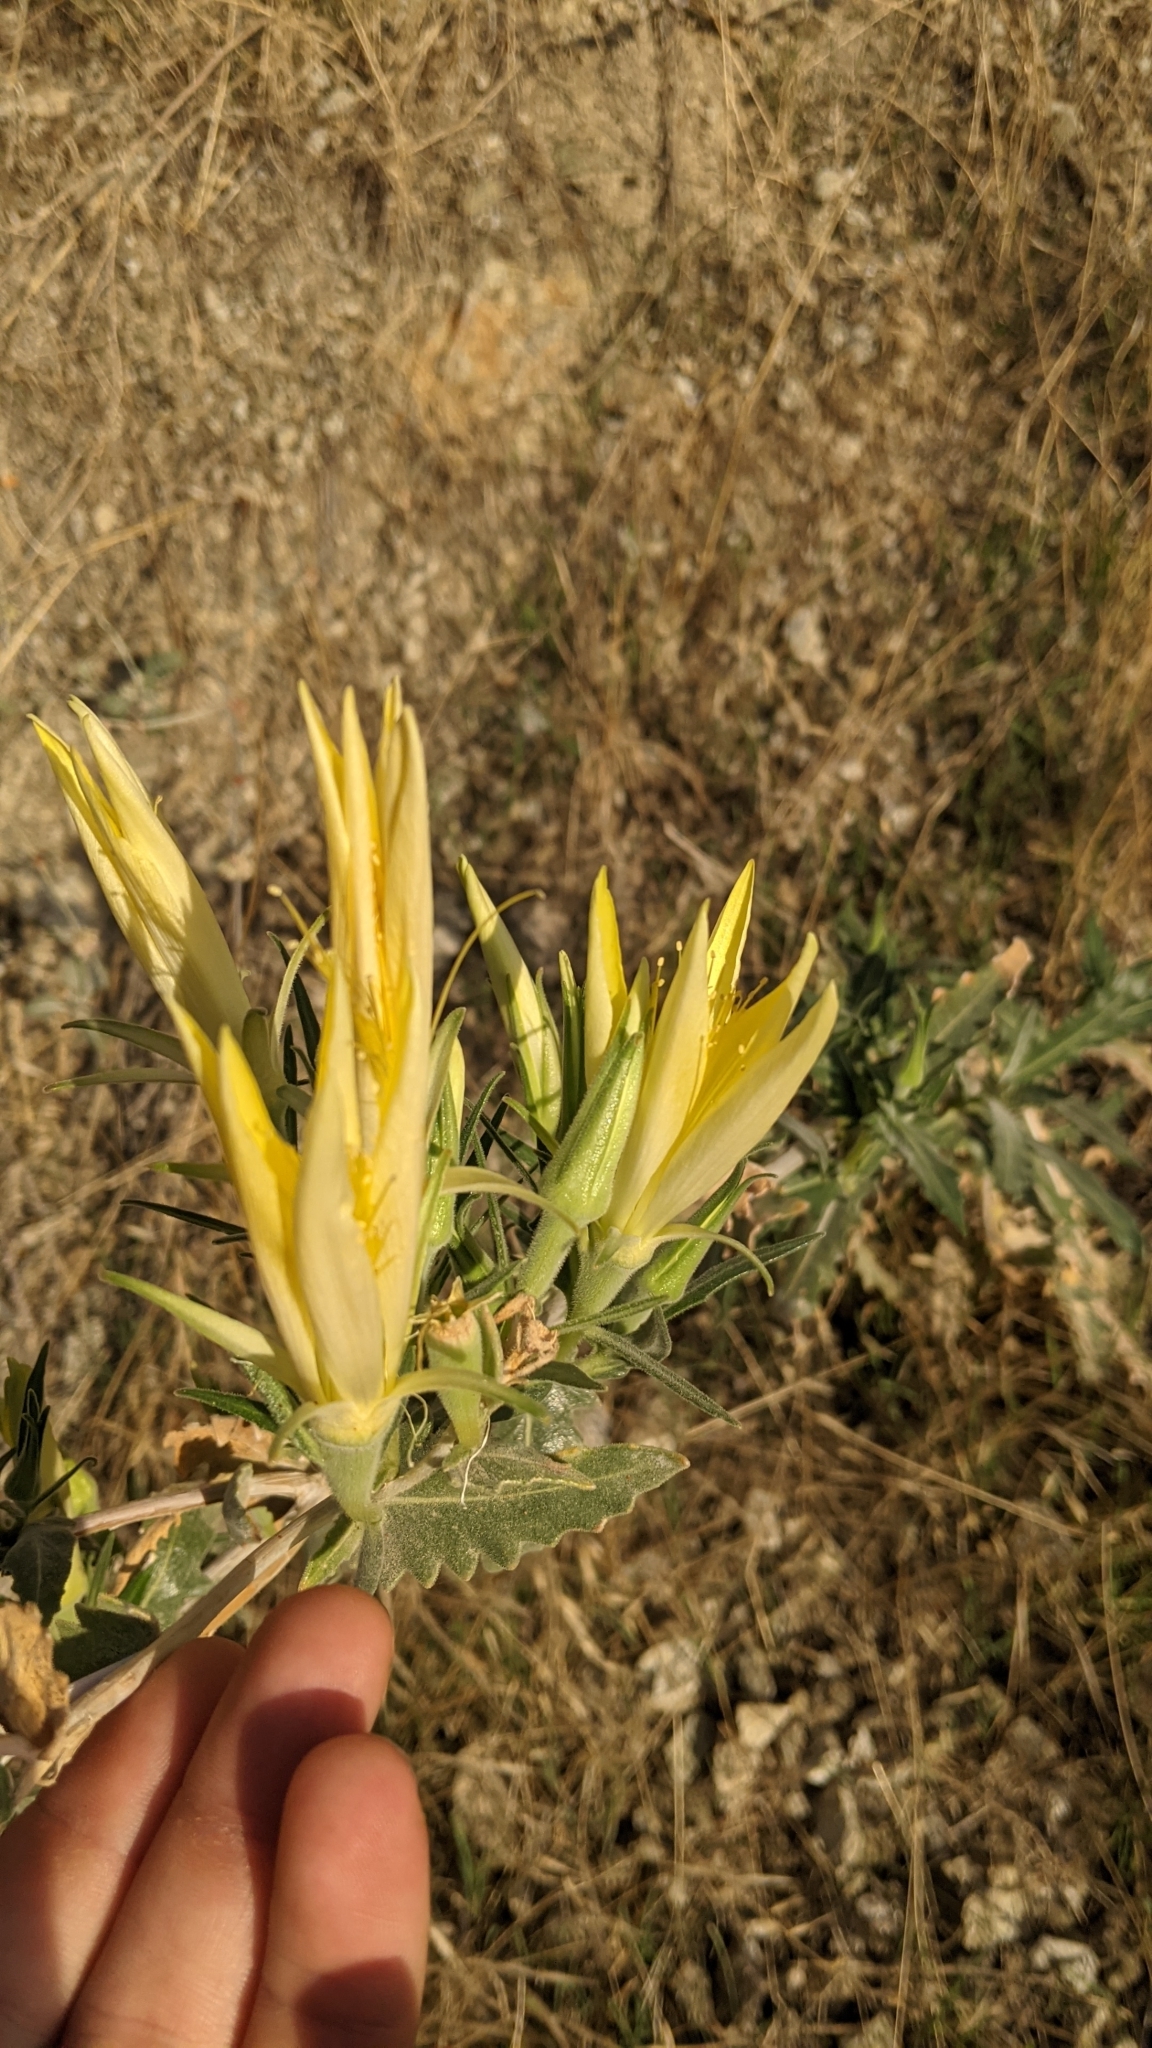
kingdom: Plantae
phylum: Tracheophyta
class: Magnoliopsida
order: Cornales
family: Loasaceae
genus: Mentzelia
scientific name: Mentzelia laevicaulis
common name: Smooth-stem blazingstar
